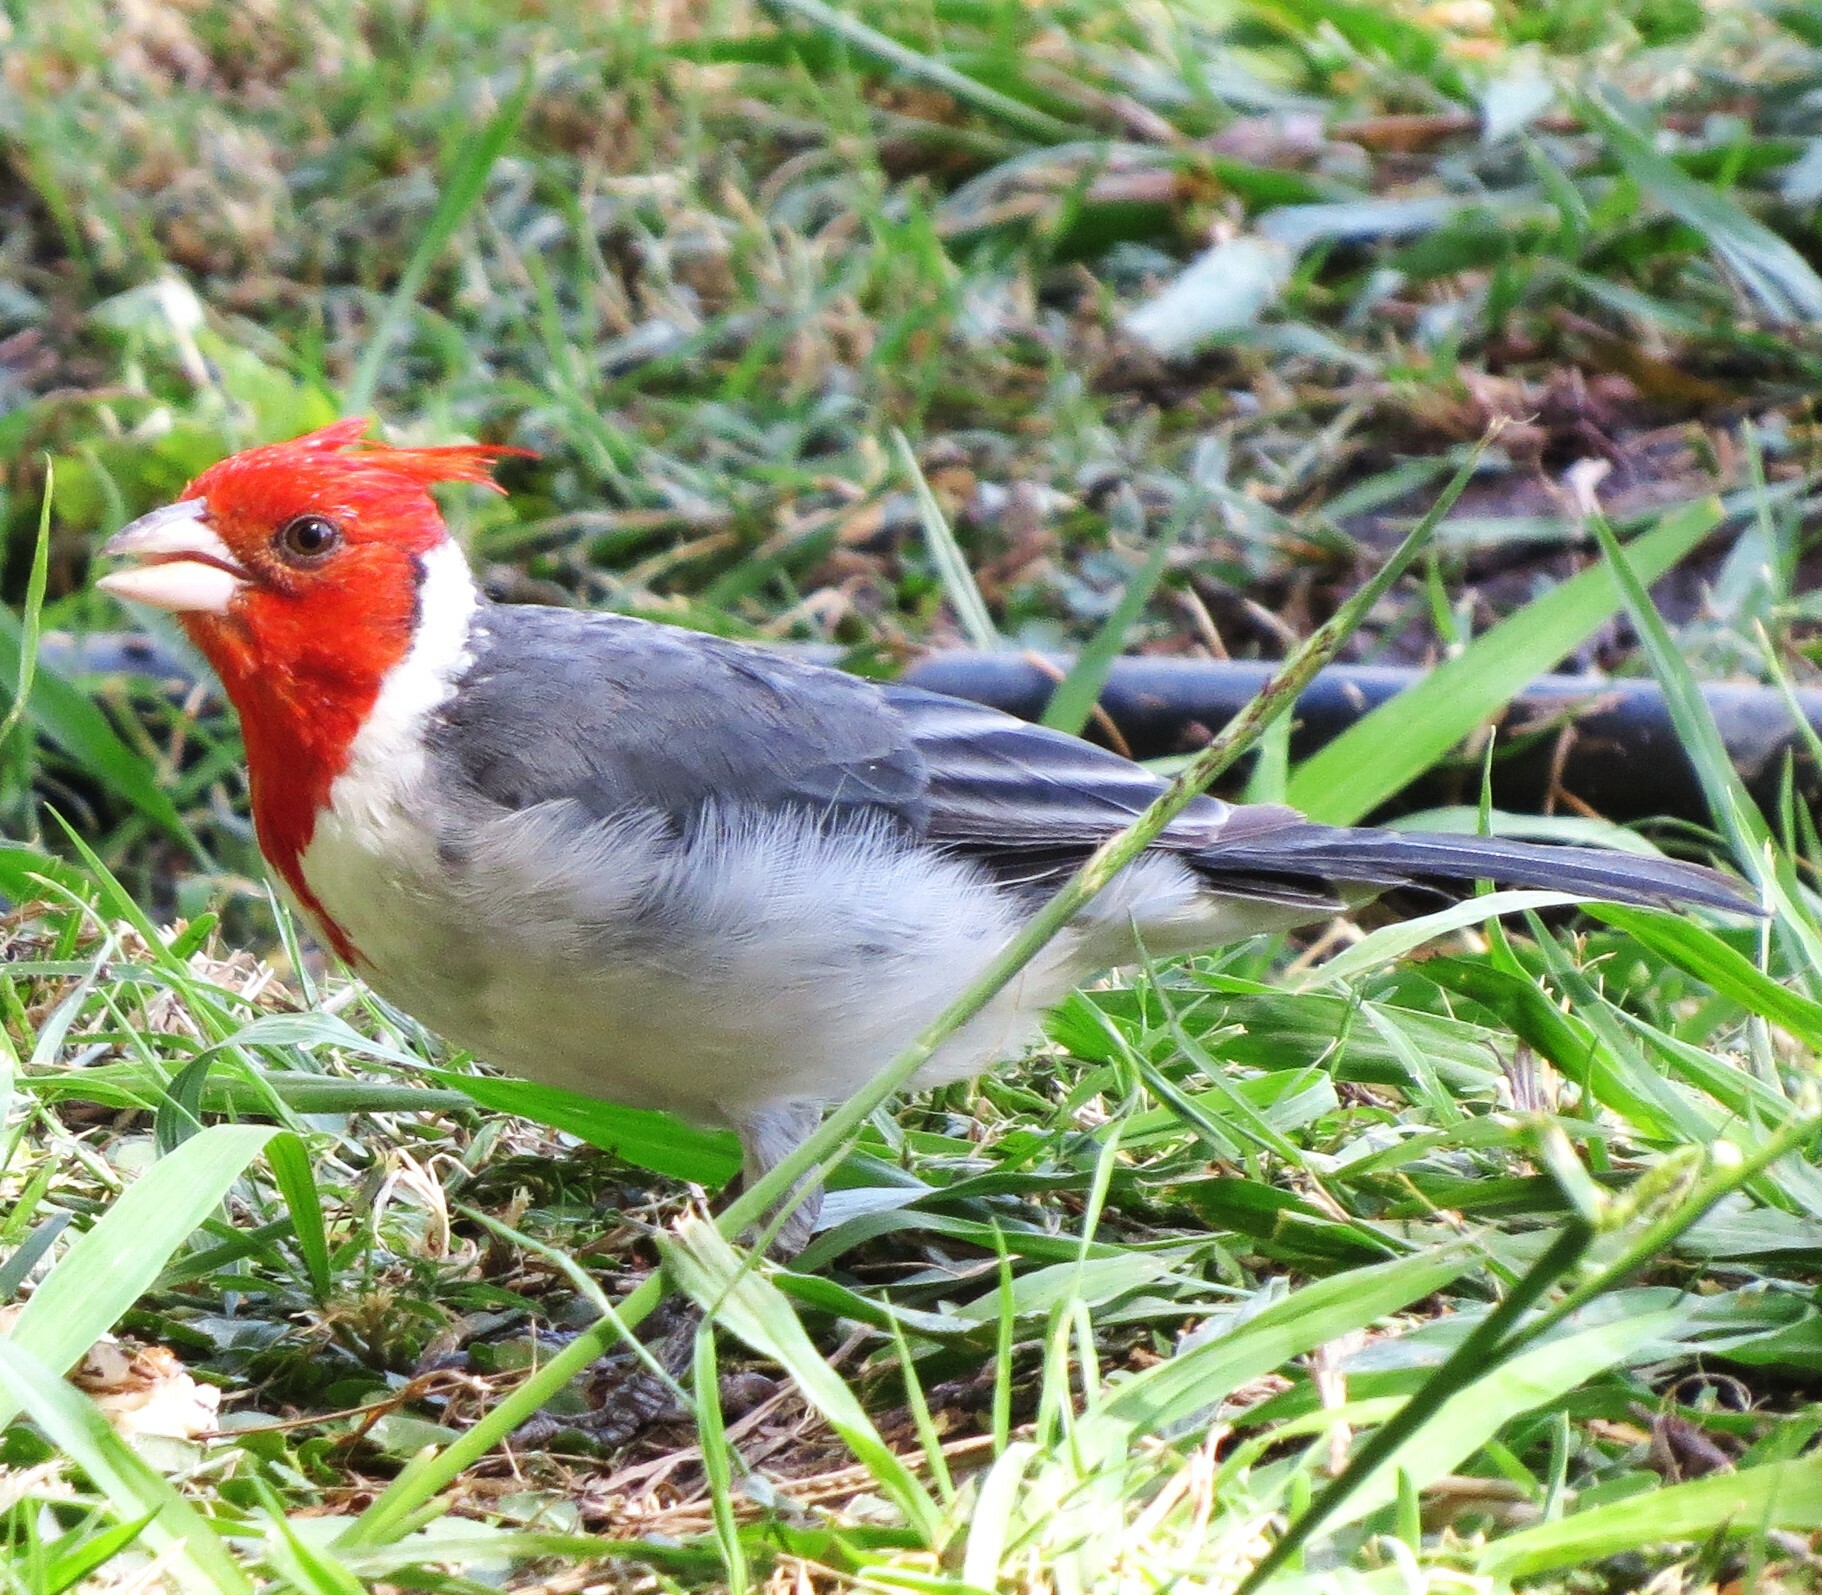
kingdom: Animalia
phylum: Chordata
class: Aves
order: Passeriformes
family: Thraupidae
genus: Paroaria
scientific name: Paroaria coronata
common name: Red-crested cardinal
